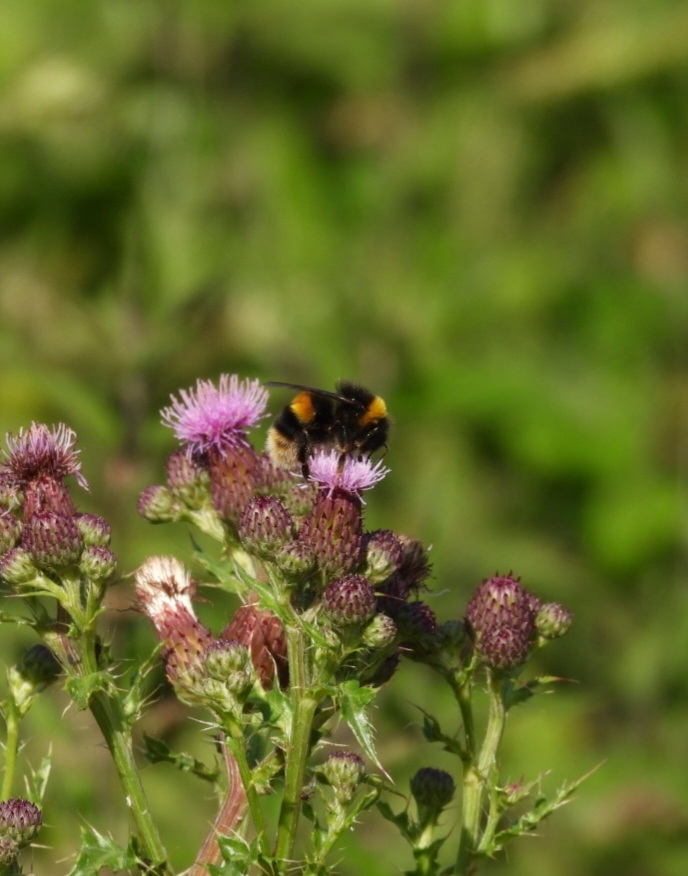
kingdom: Animalia
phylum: Arthropoda
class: Insecta
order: Hymenoptera
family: Apidae
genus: Bombus
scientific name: Bombus terrestris
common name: Buff-tailed bumblebee
